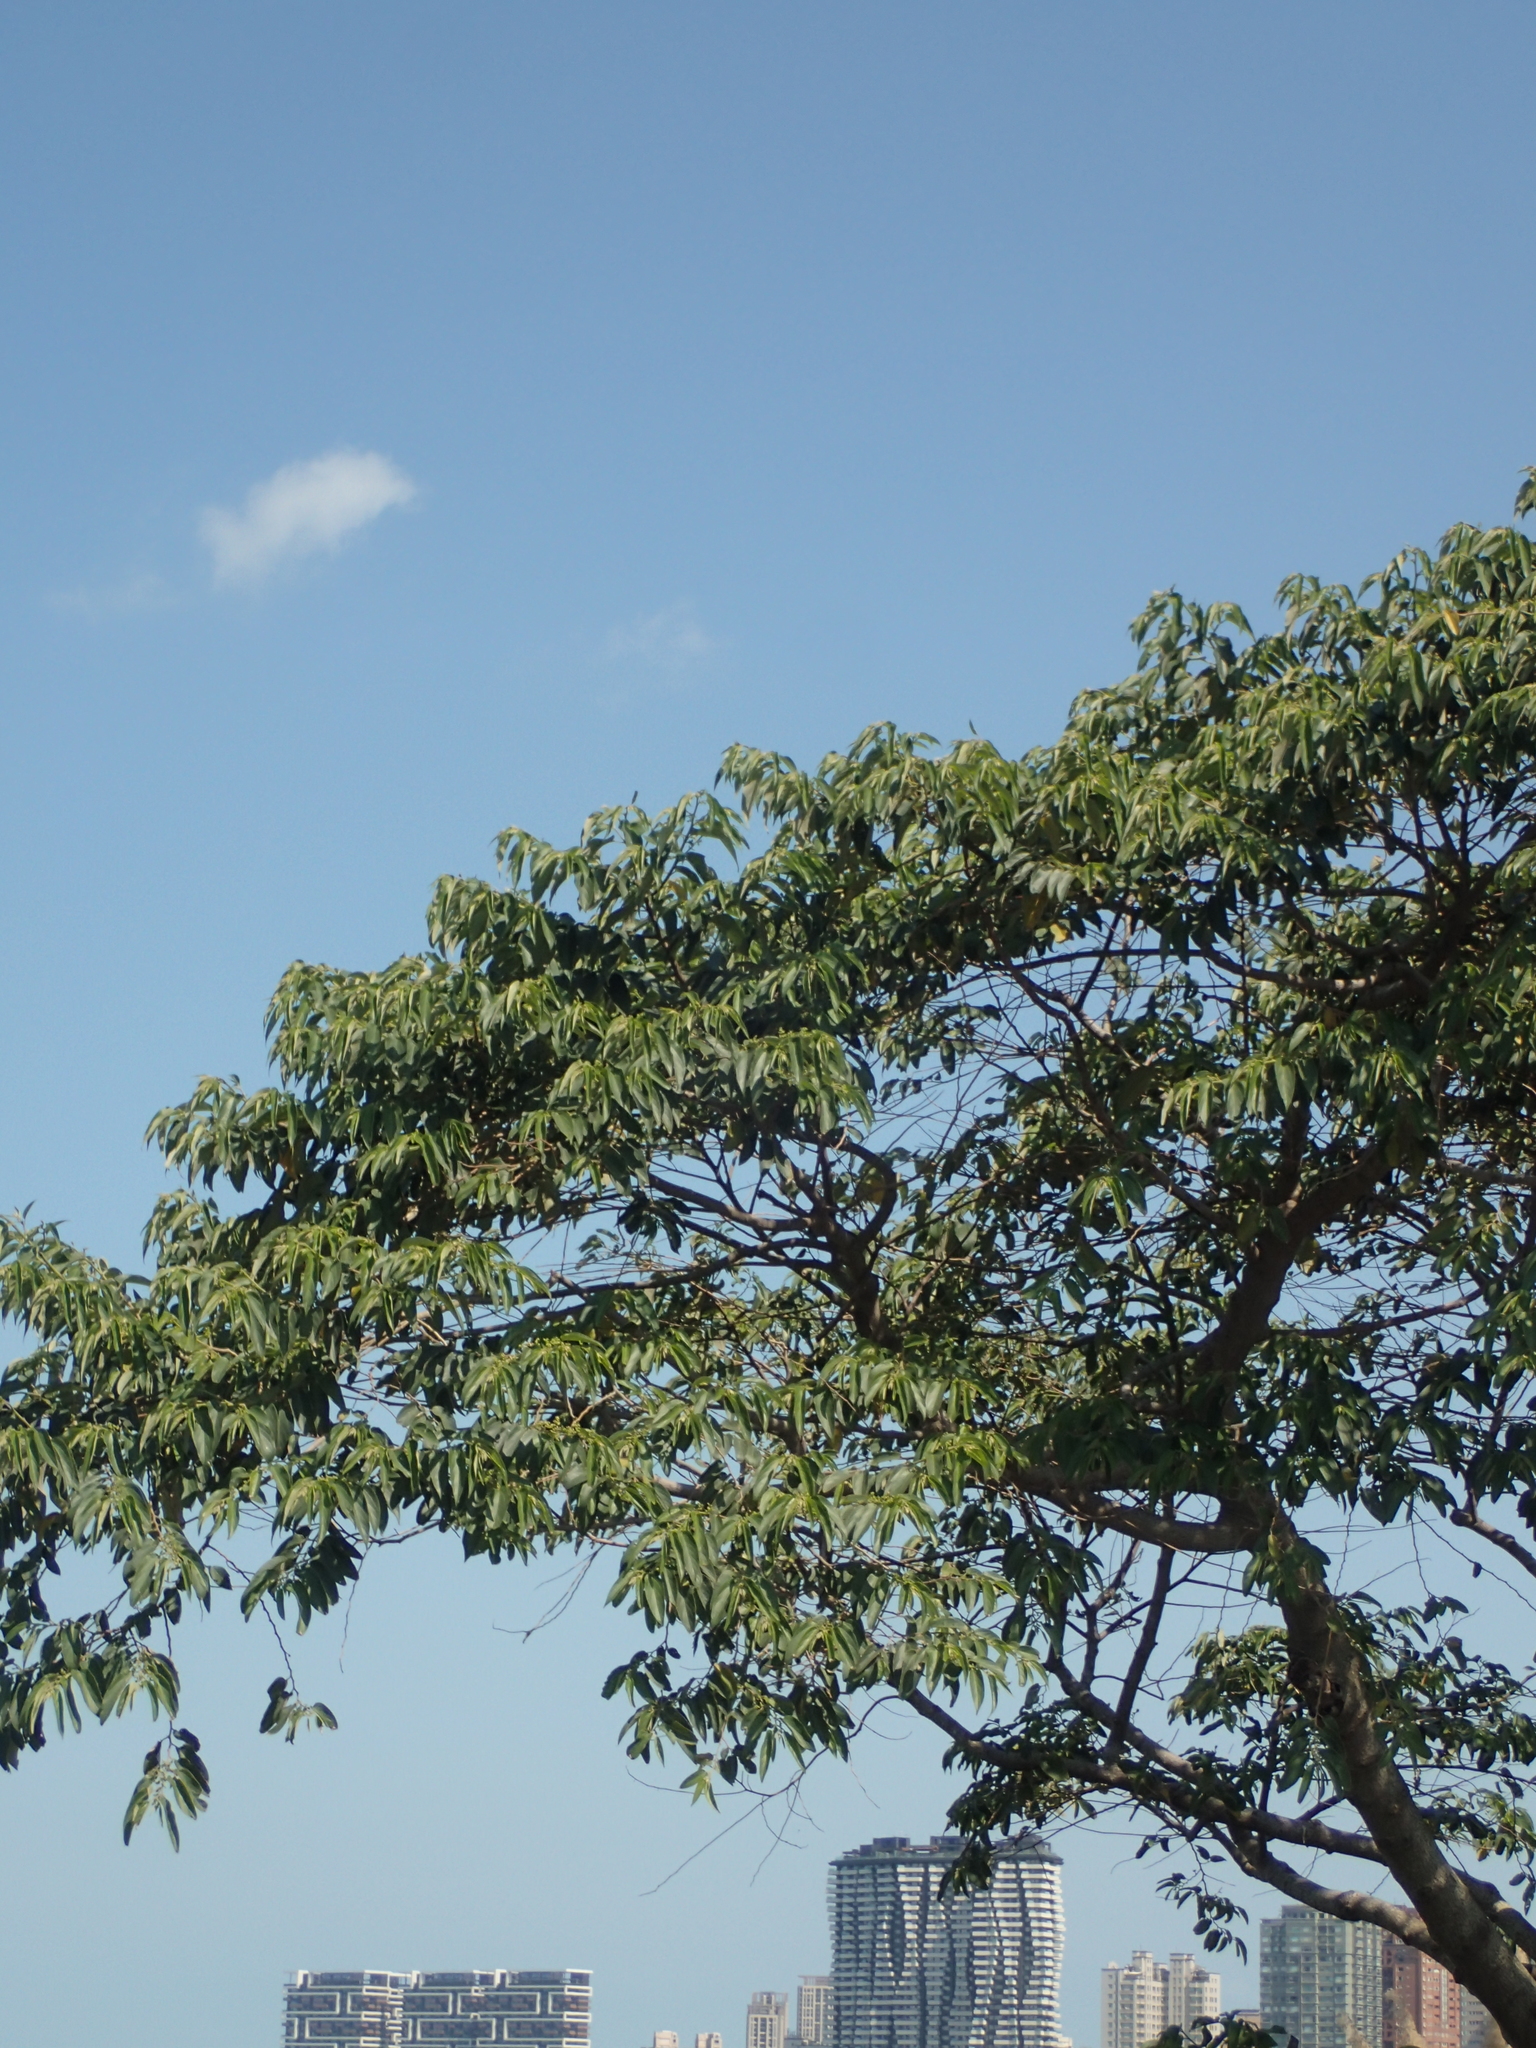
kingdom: Plantae
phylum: Tracheophyta
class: Magnoliopsida
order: Rosales
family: Cannabaceae
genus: Trema
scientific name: Trema orientale
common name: Indian charcoal tree
